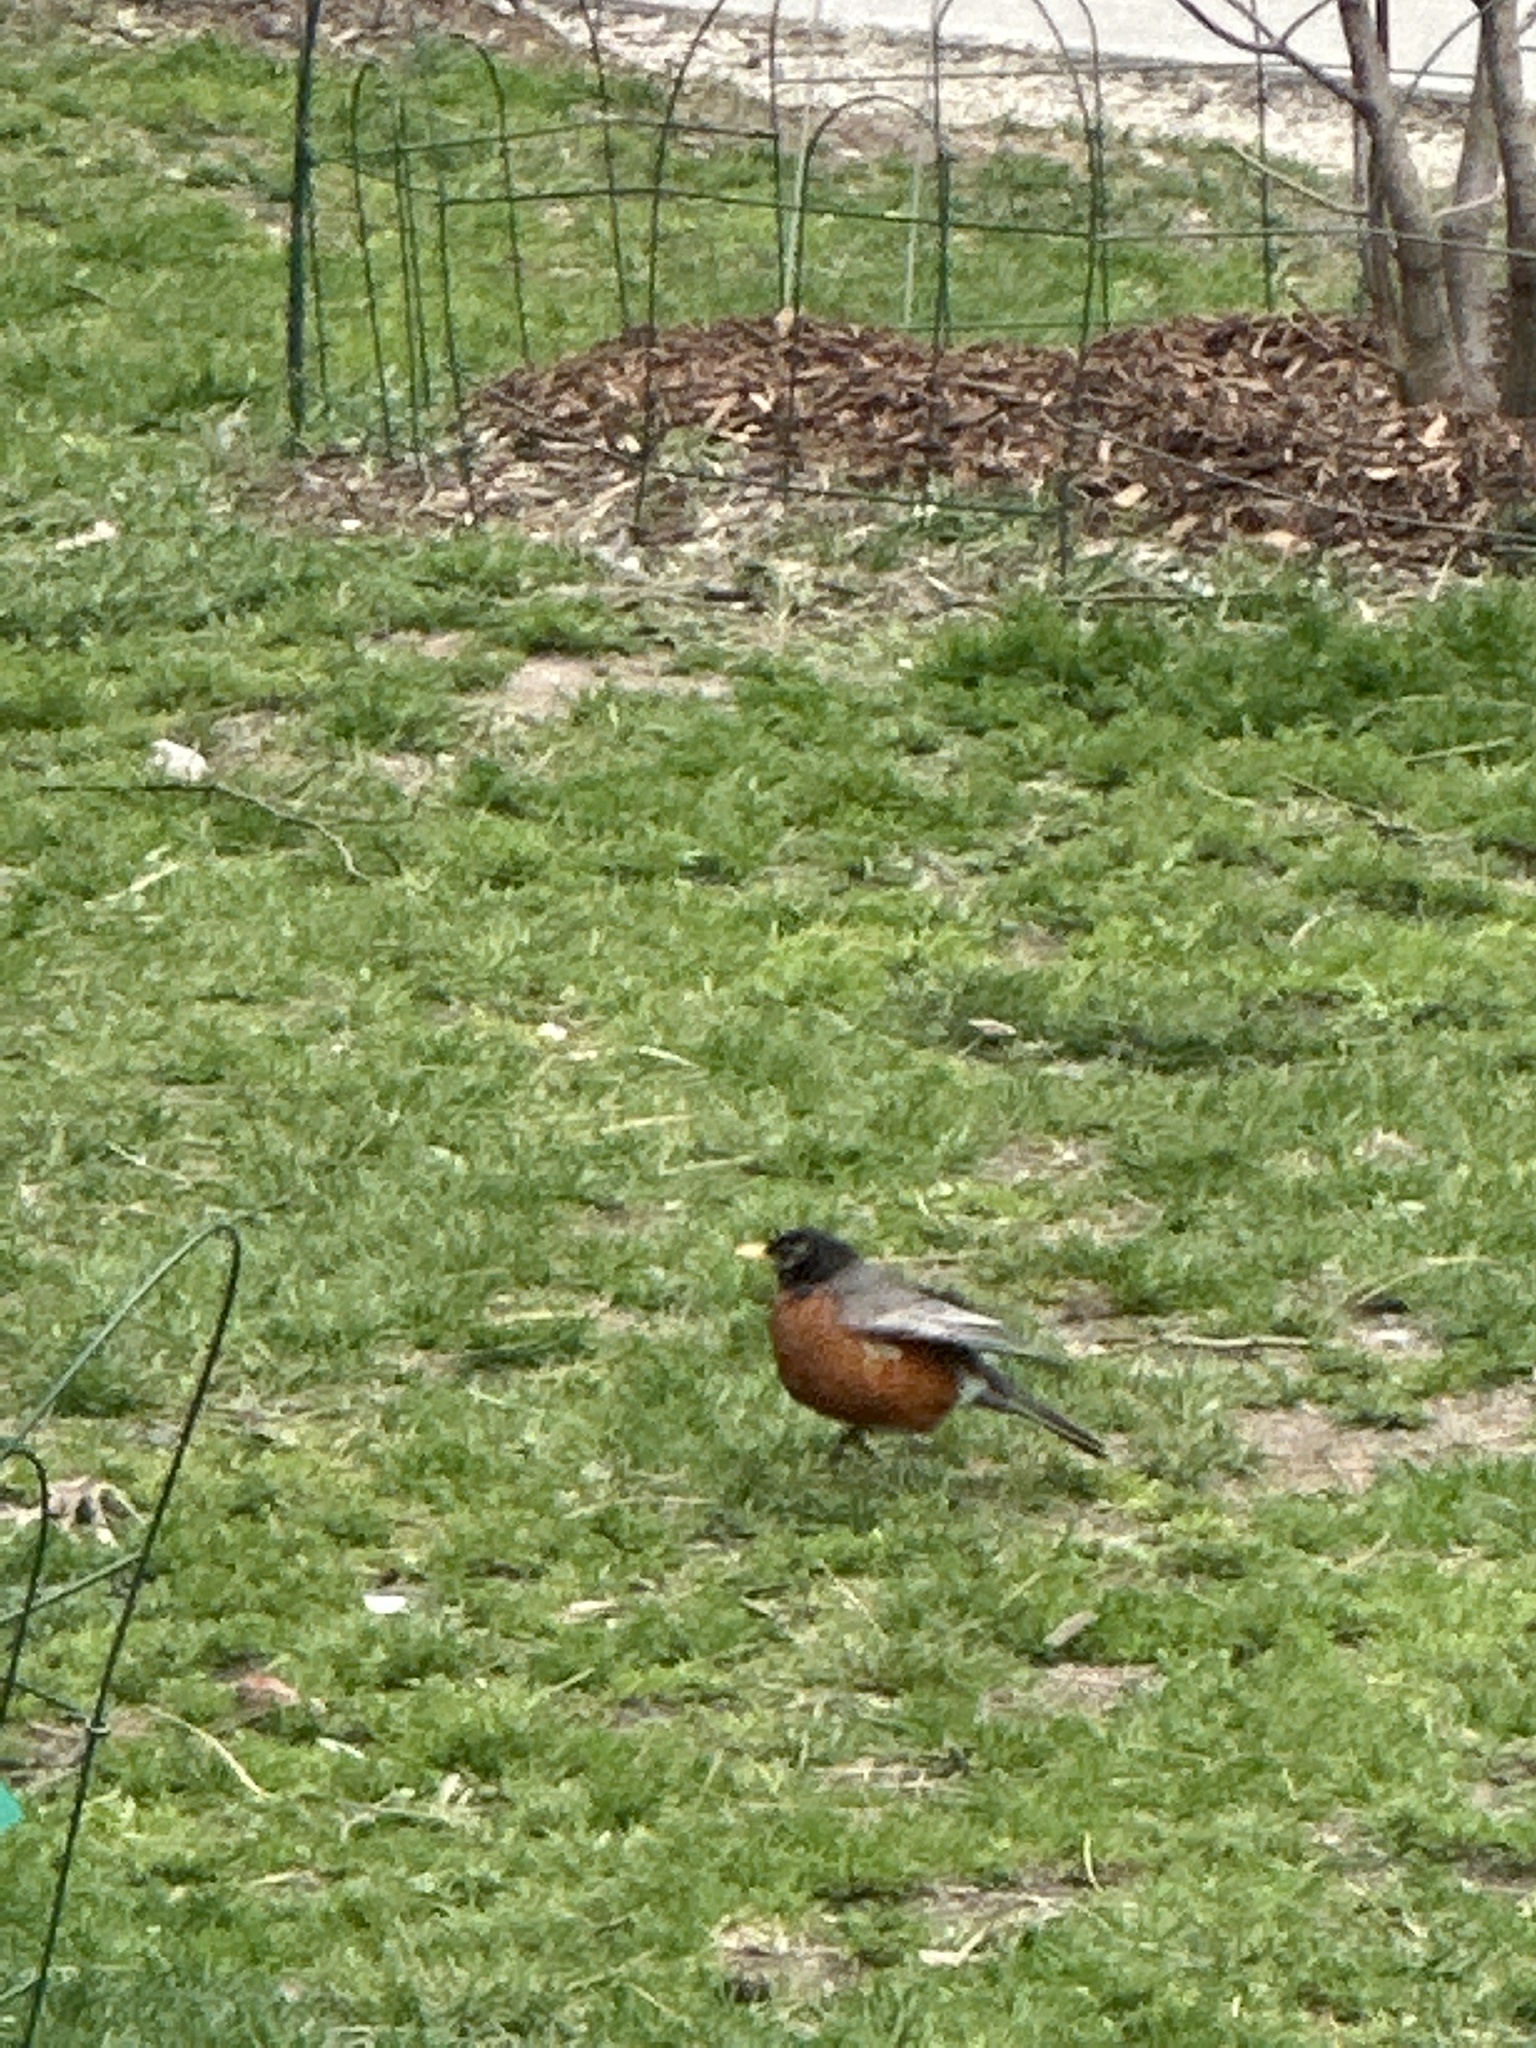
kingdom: Animalia
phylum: Chordata
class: Aves
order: Passeriformes
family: Turdidae
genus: Turdus
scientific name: Turdus migratorius
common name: American robin
